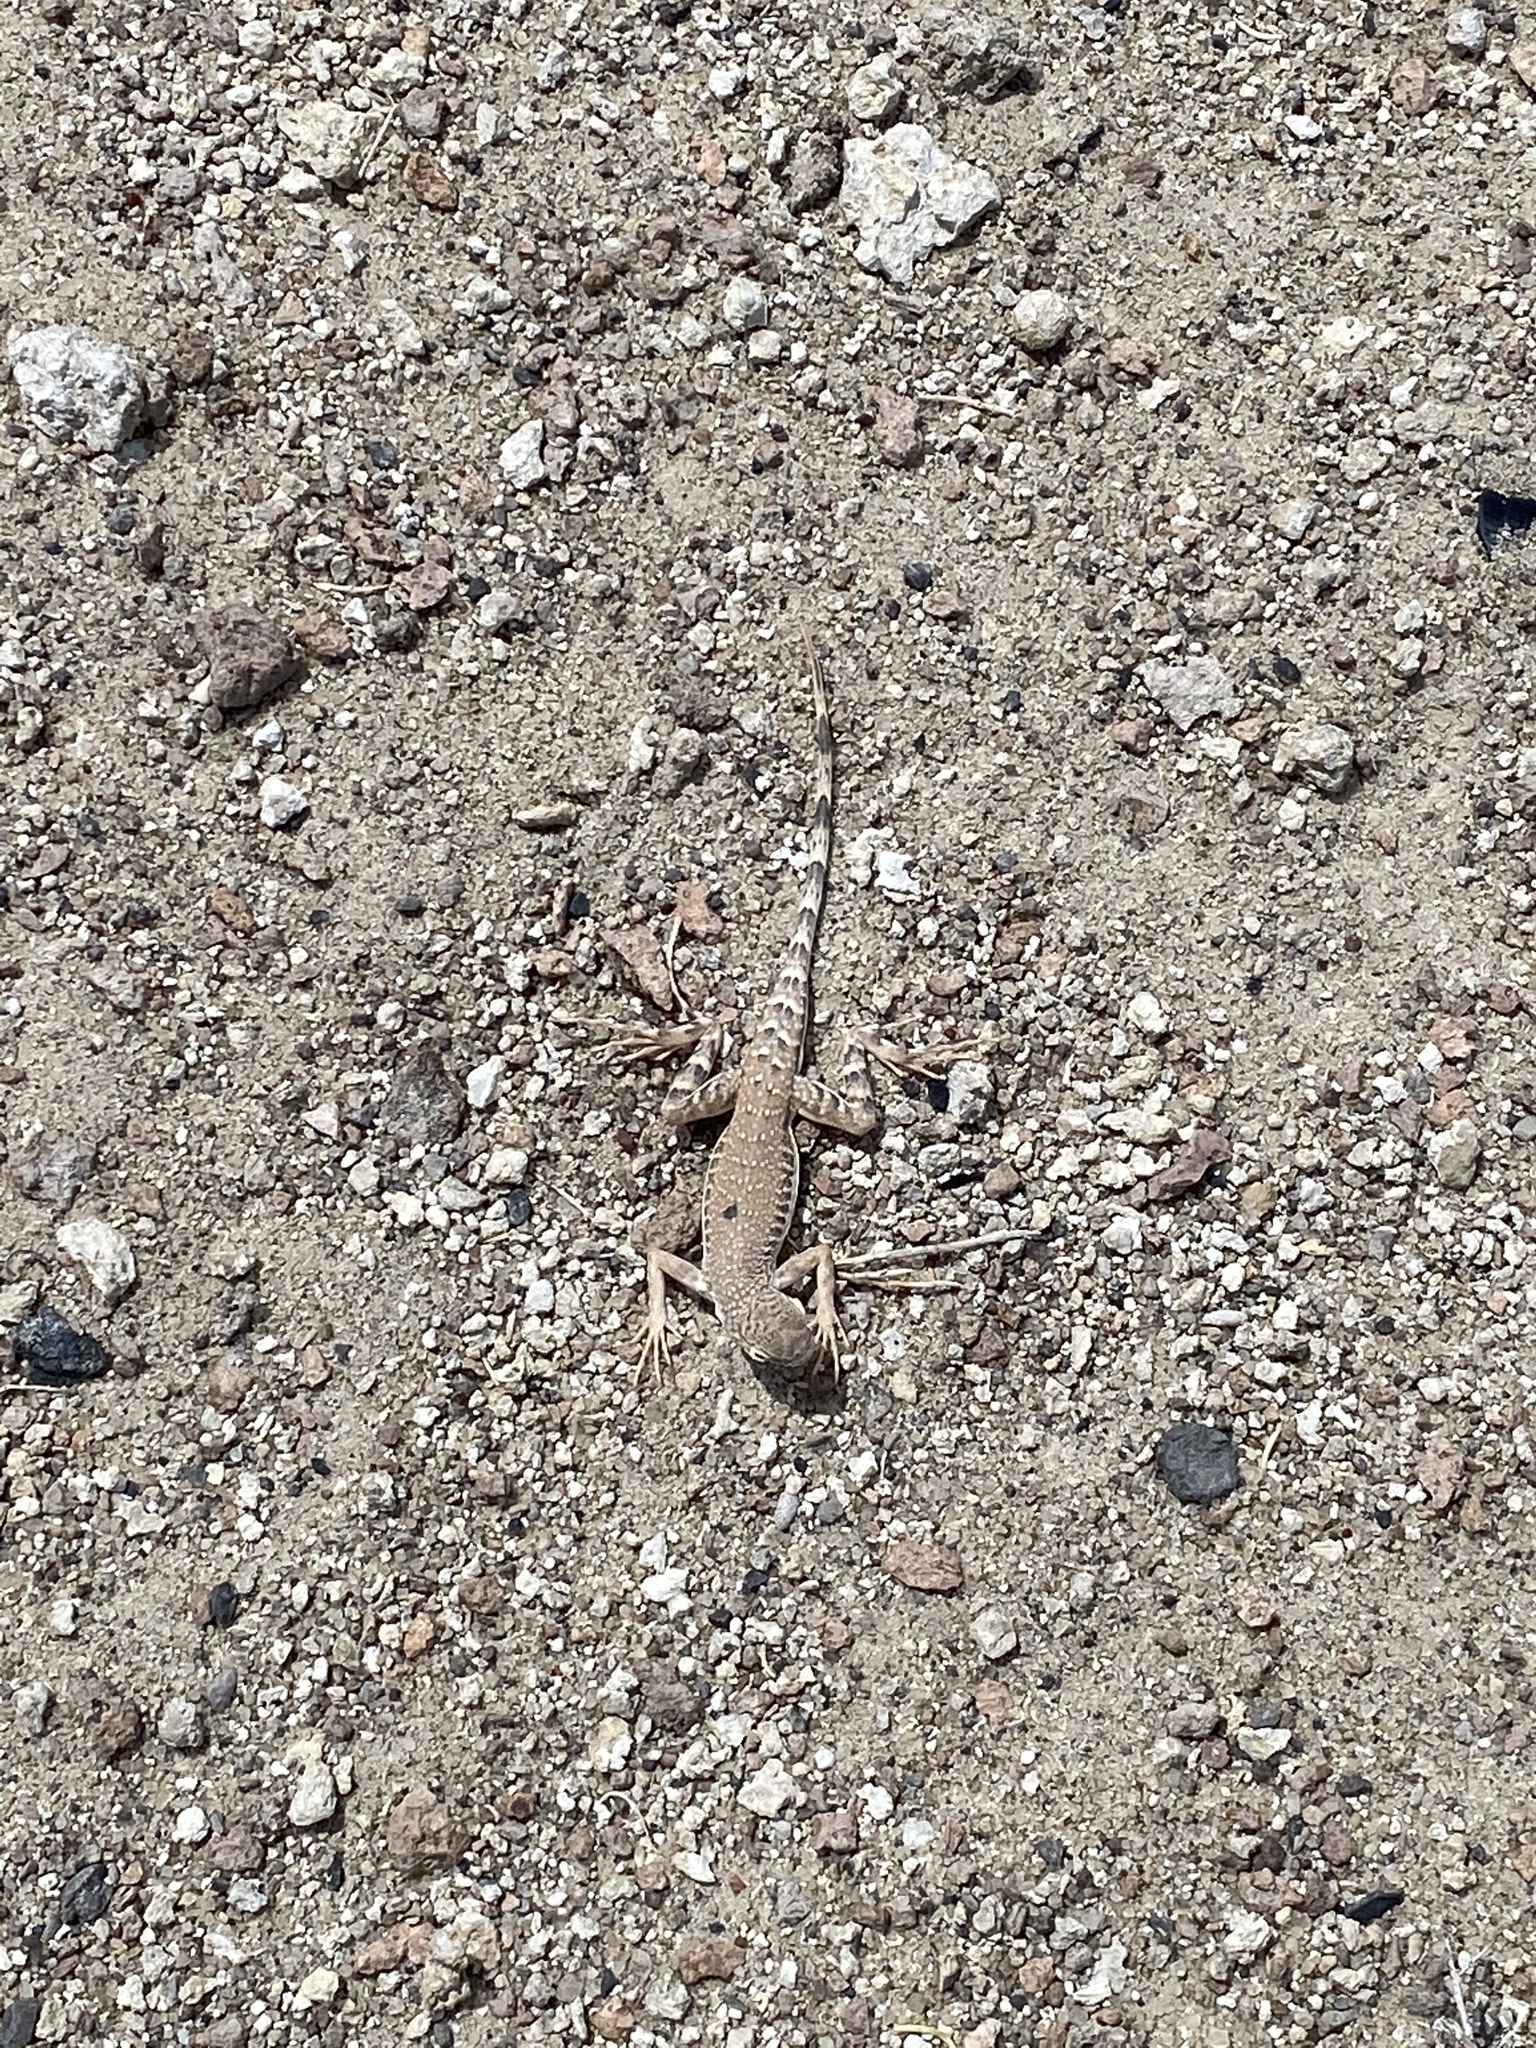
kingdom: Animalia
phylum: Chordata
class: Squamata
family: Phrynosomatidae
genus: Callisaurus
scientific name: Callisaurus draconoides
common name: Zebra-tailed lizard
